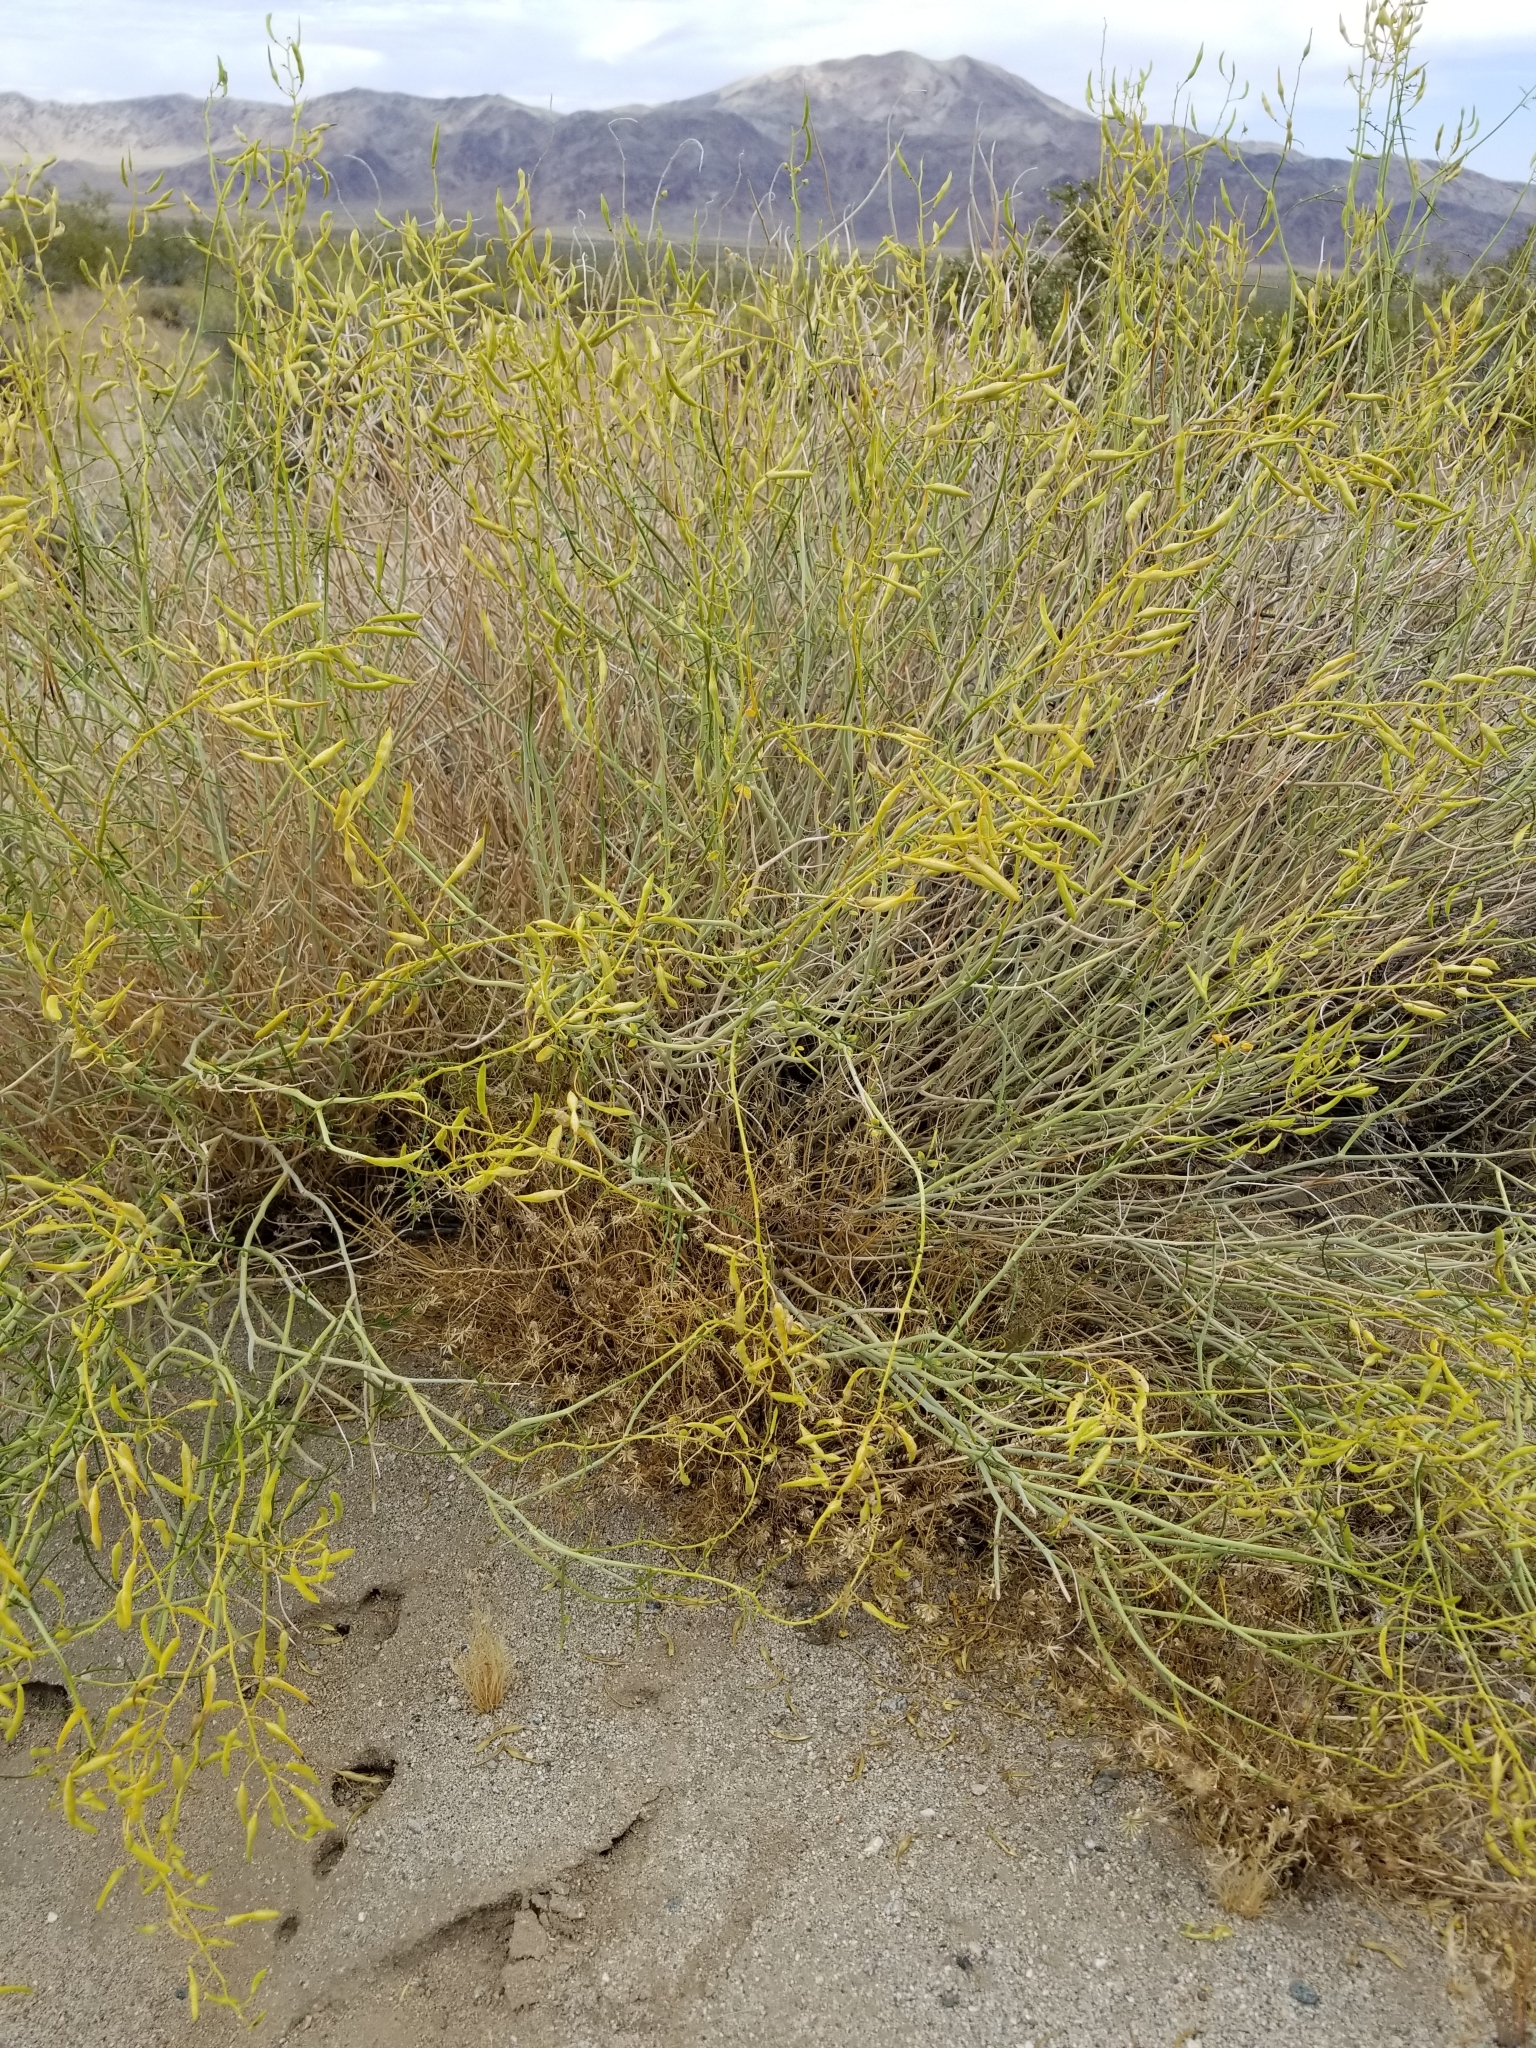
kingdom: Plantae
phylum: Tracheophyta
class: Magnoliopsida
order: Fabales
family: Fabaceae
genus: Senna
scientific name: Senna armata
